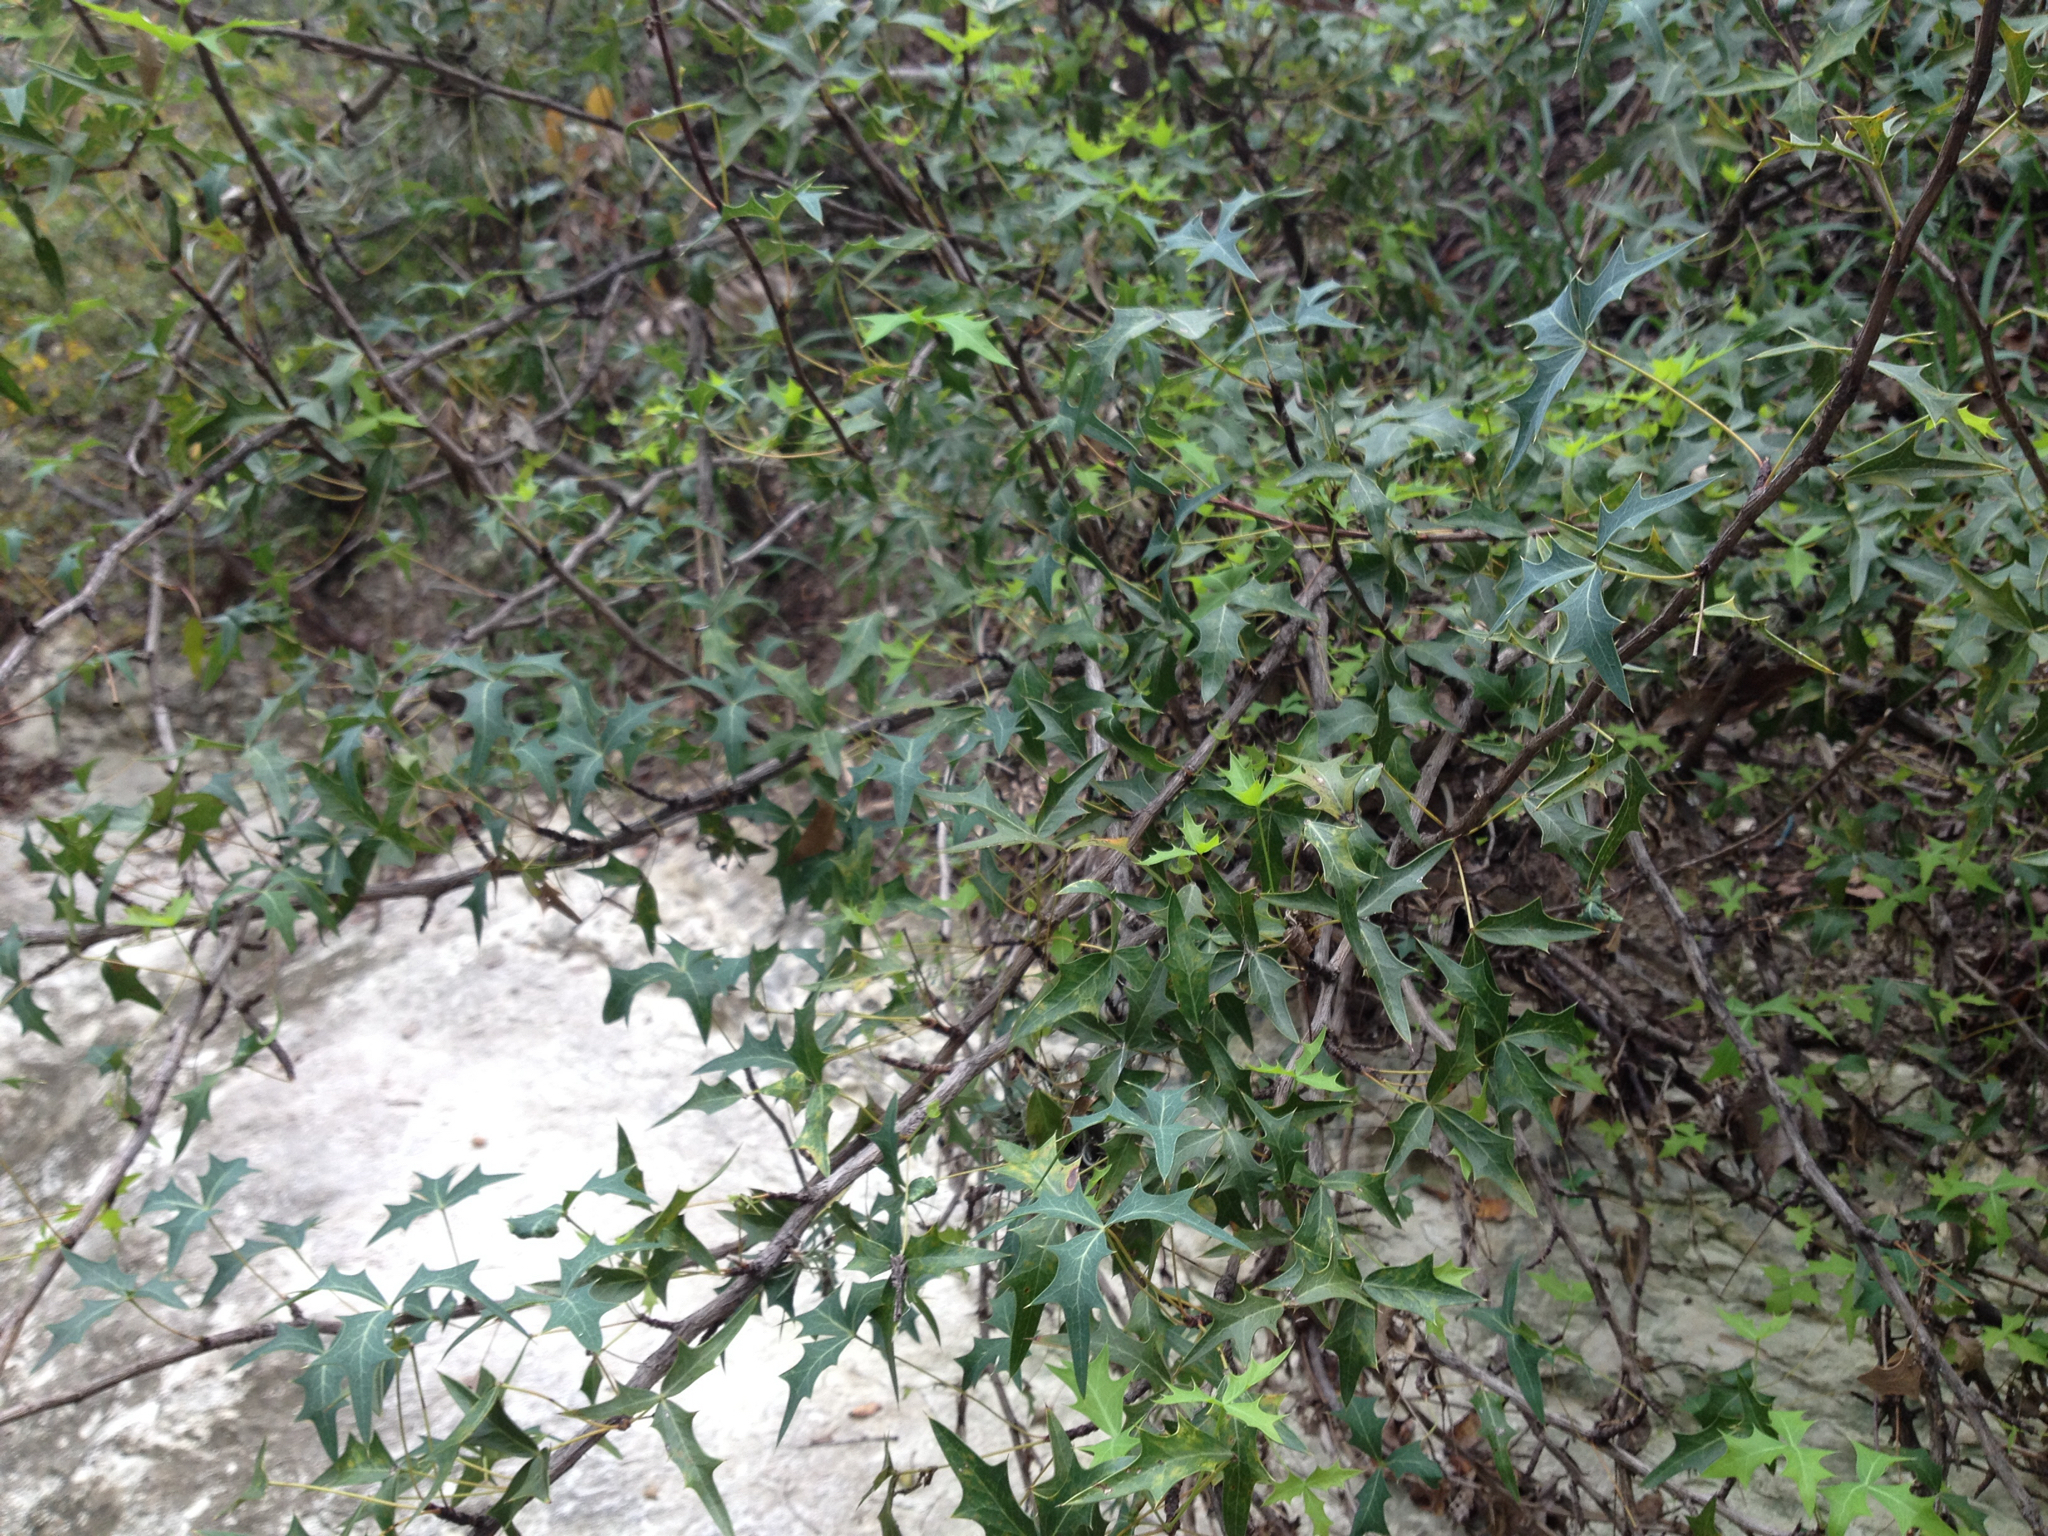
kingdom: Plantae
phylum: Tracheophyta
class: Magnoliopsida
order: Ranunculales
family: Berberidaceae
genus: Alloberberis
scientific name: Alloberberis trifoliolata
